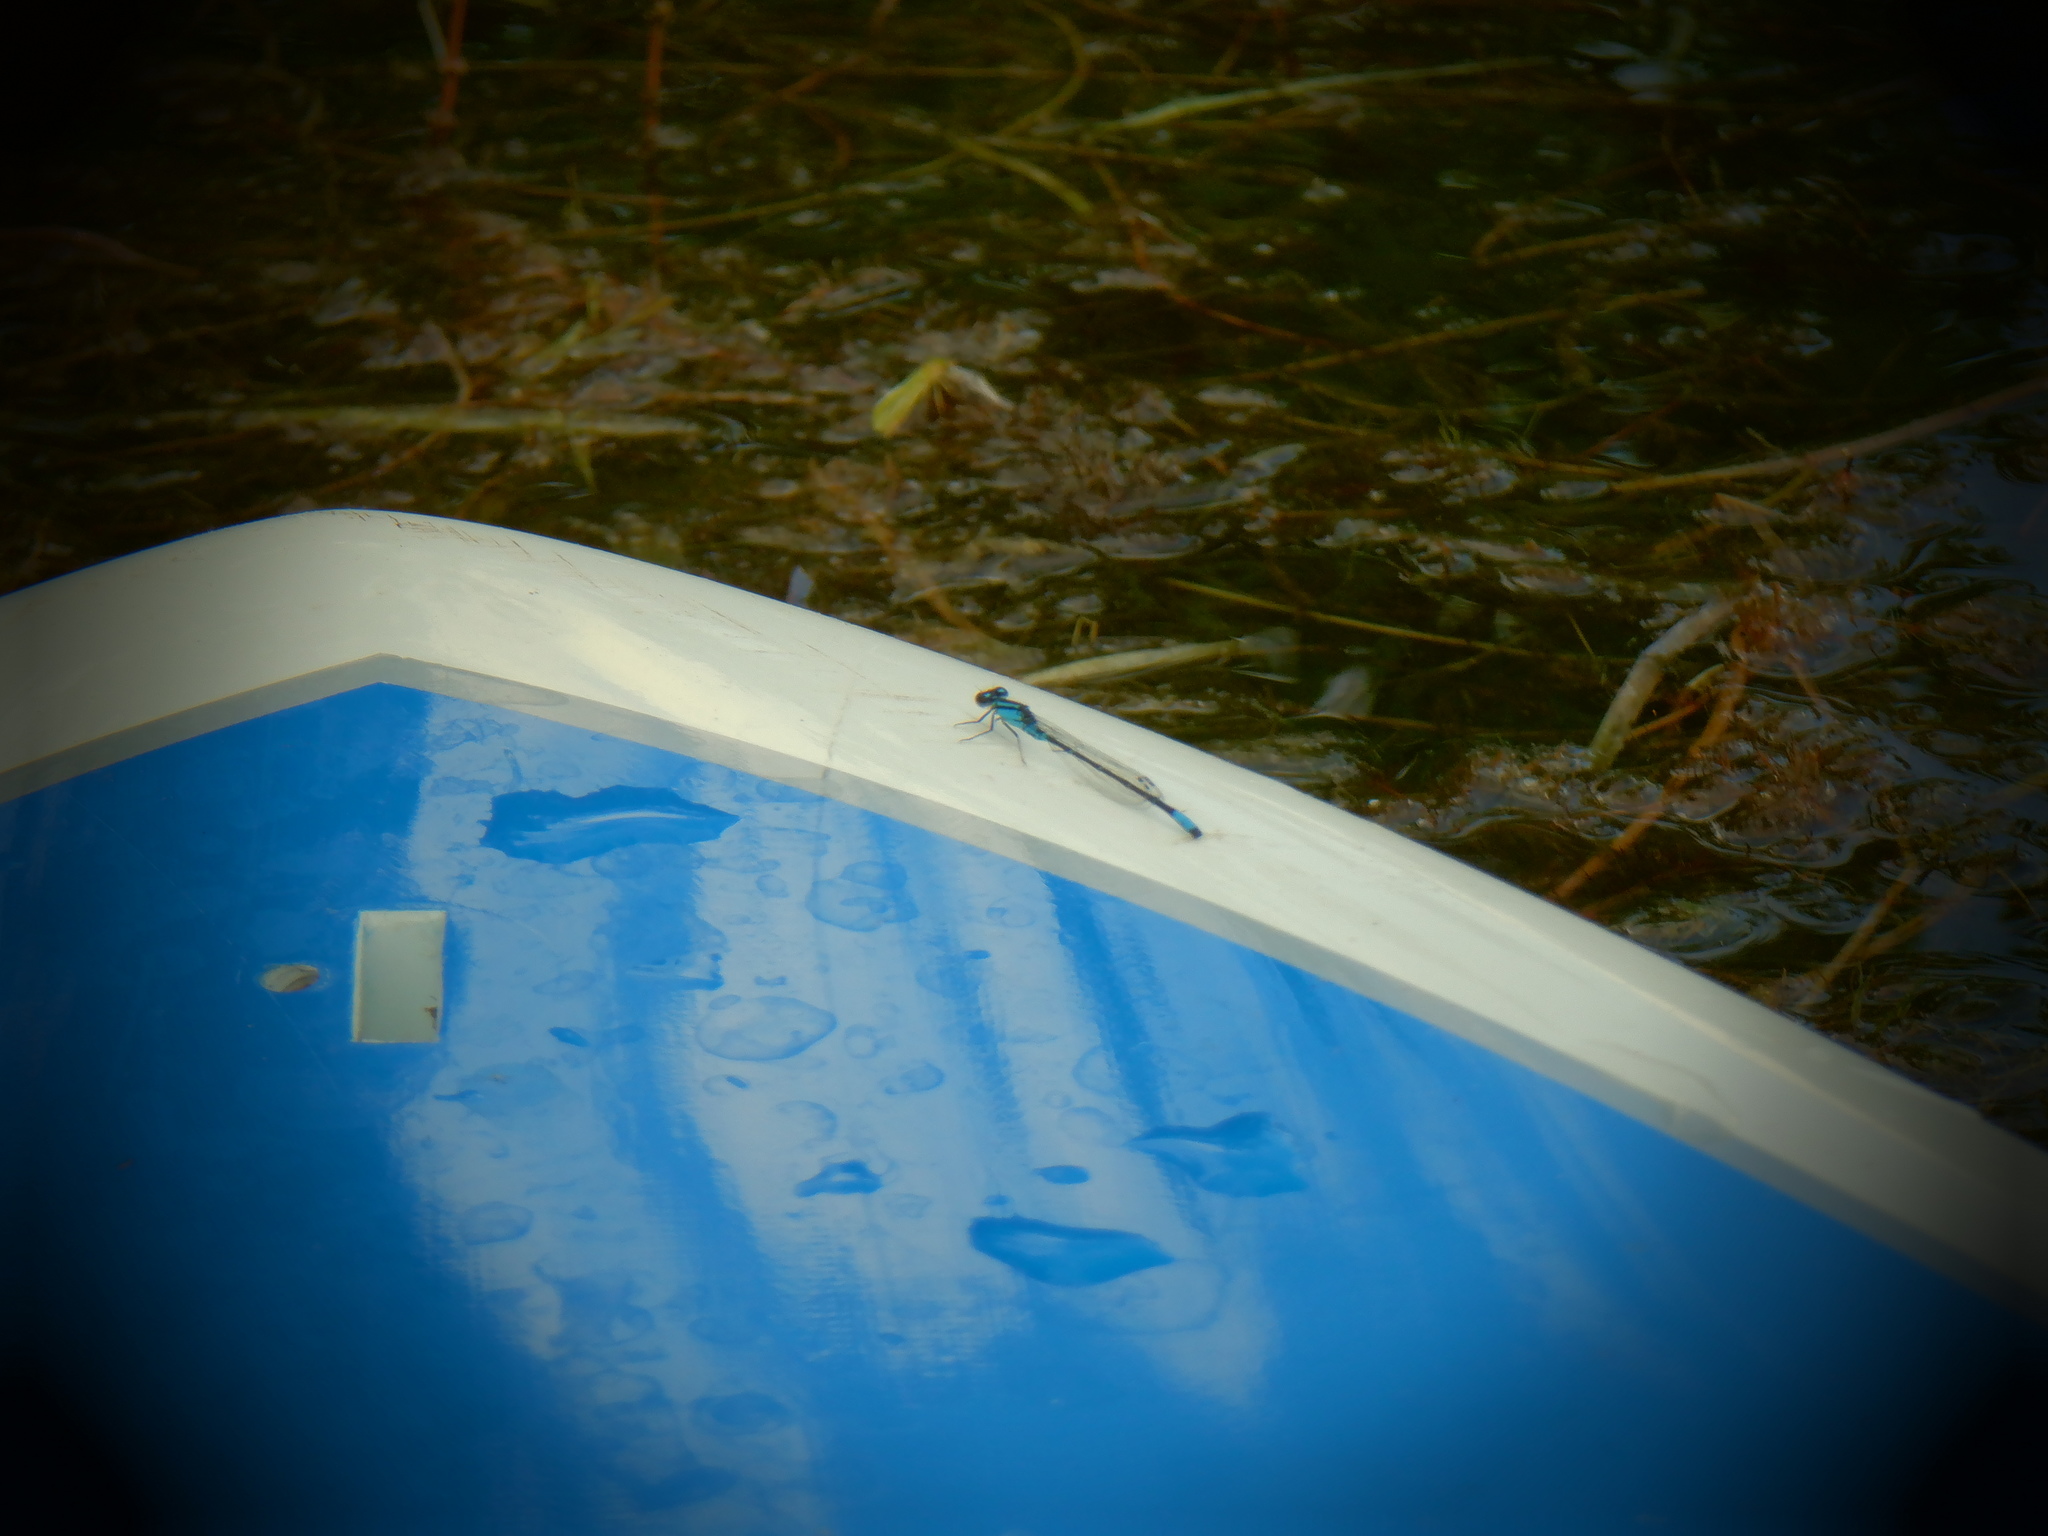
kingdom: Animalia
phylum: Arthropoda
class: Insecta
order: Odonata
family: Coenagrionidae
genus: Enallagma
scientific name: Enallagma geminatum
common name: Skimming bluet
